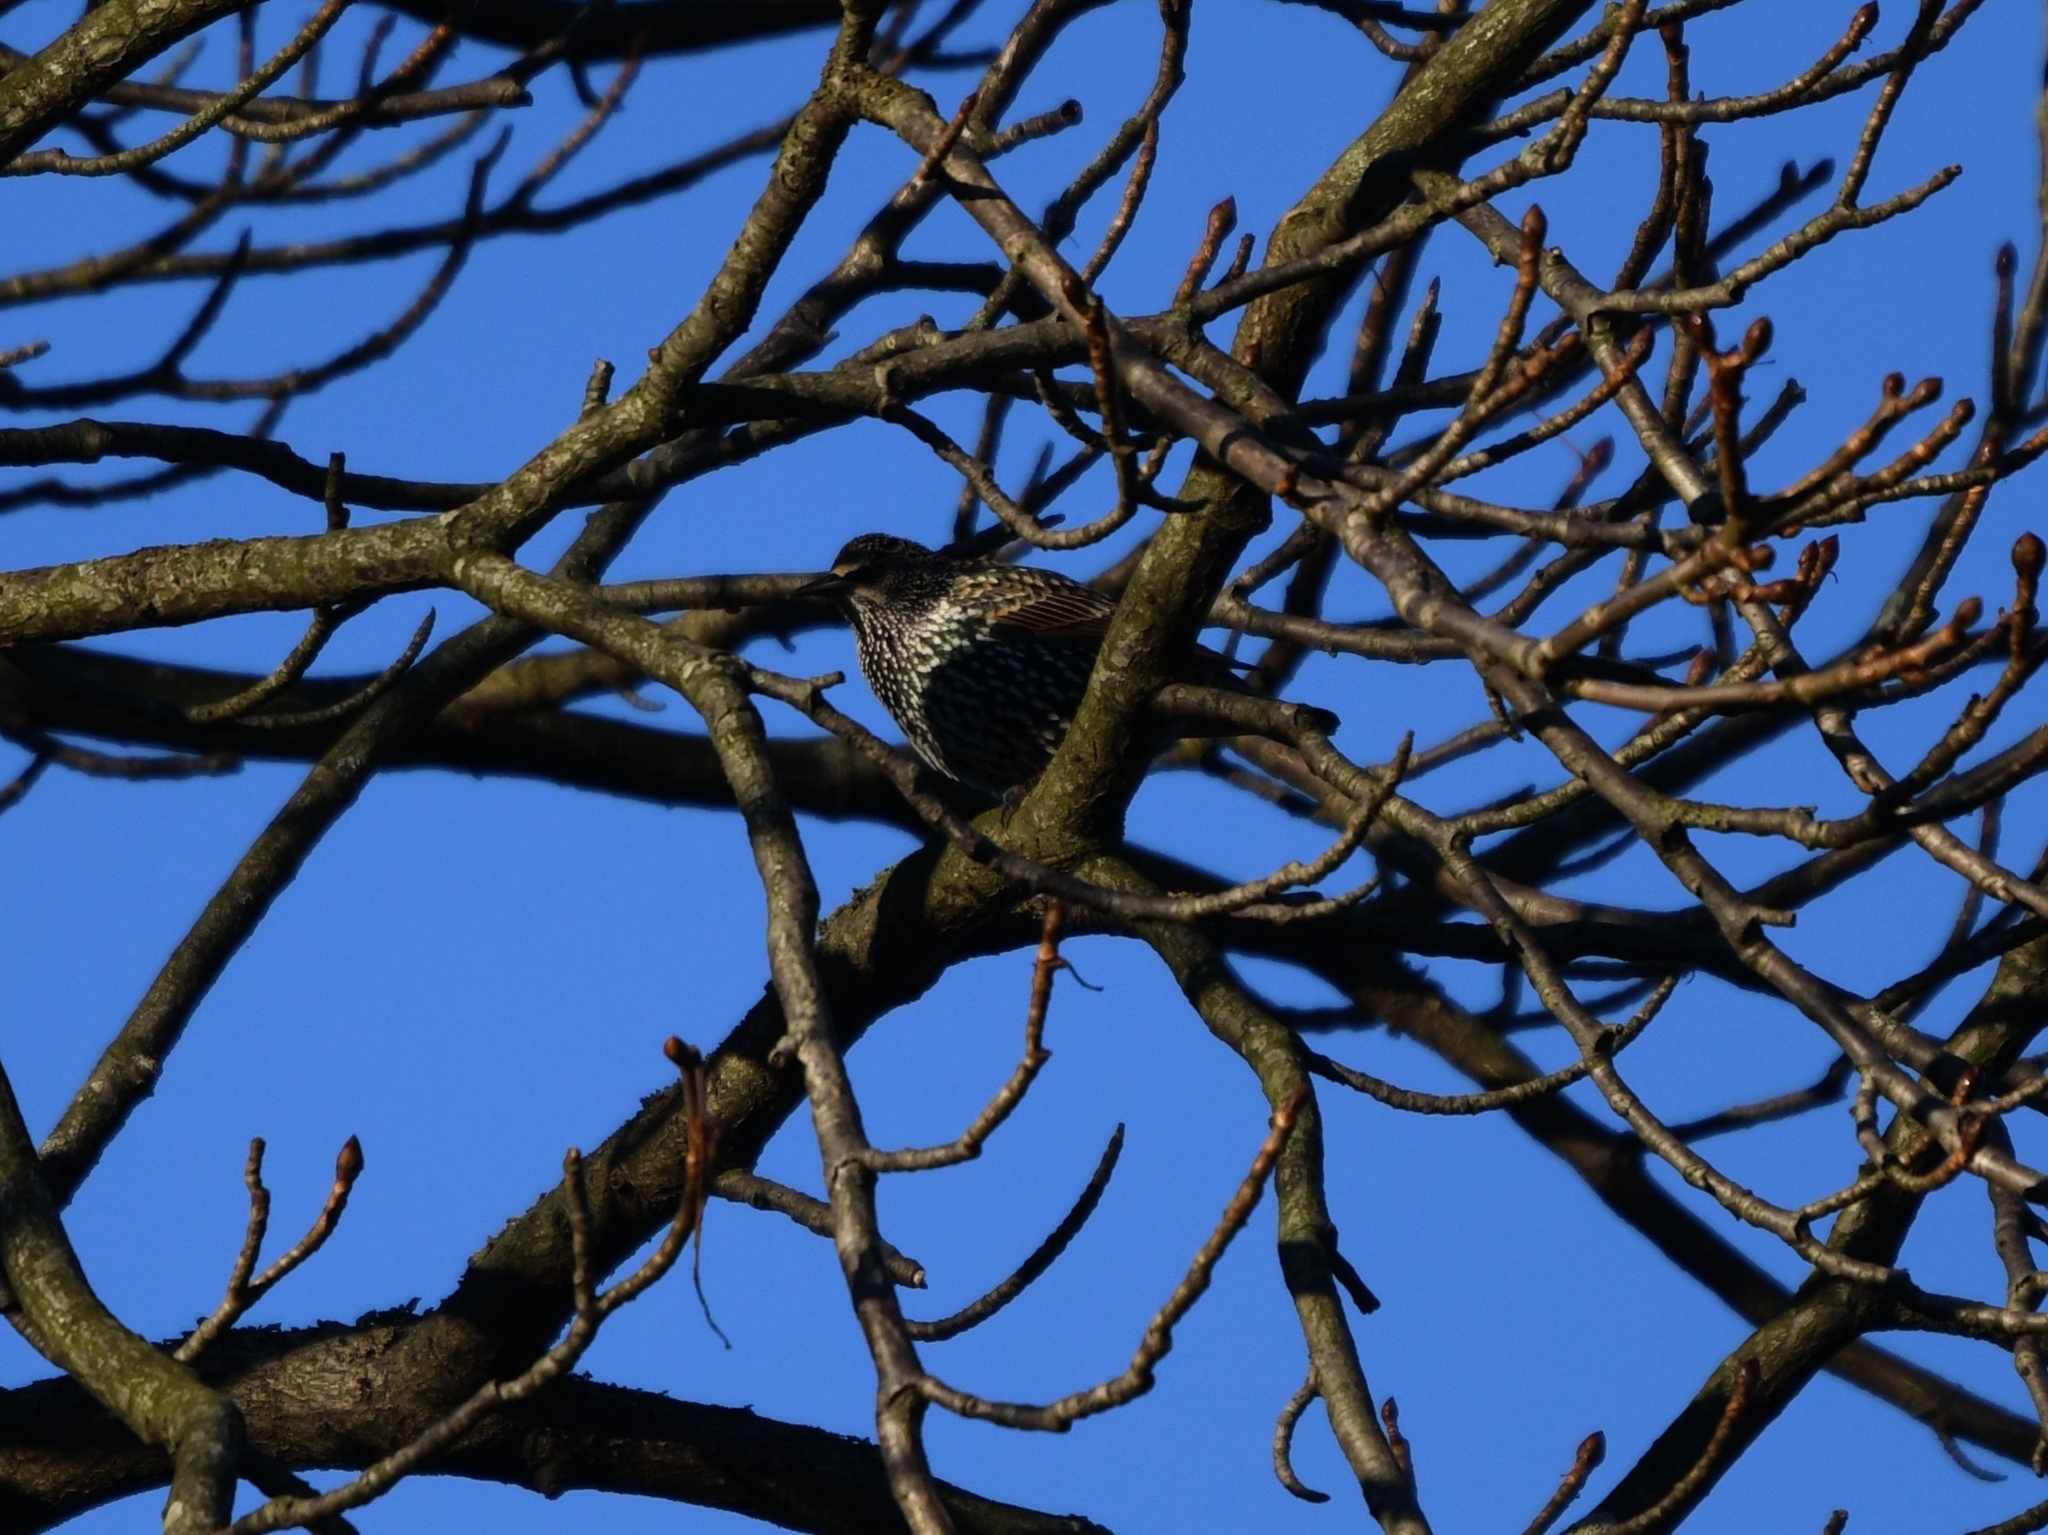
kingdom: Animalia
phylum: Chordata
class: Aves
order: Passeriformes
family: Sturnidae
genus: Sturnus
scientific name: Sturnus vulgaris
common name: Common starling
